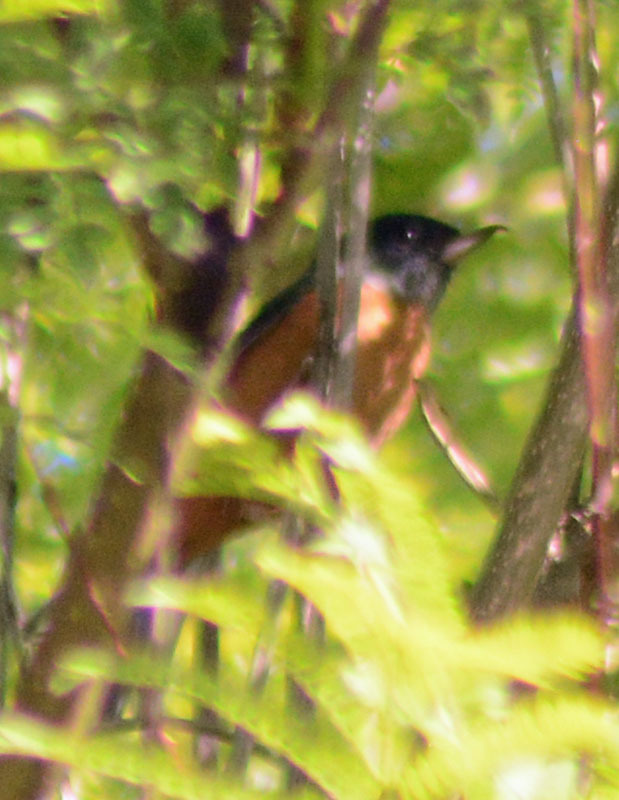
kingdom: Animalia
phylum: Chordata
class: Aves
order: Passeriformes
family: Thraupidae
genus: Diglossa
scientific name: Diglossa baritula
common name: Cinnamon-bellied flowerpiercer
